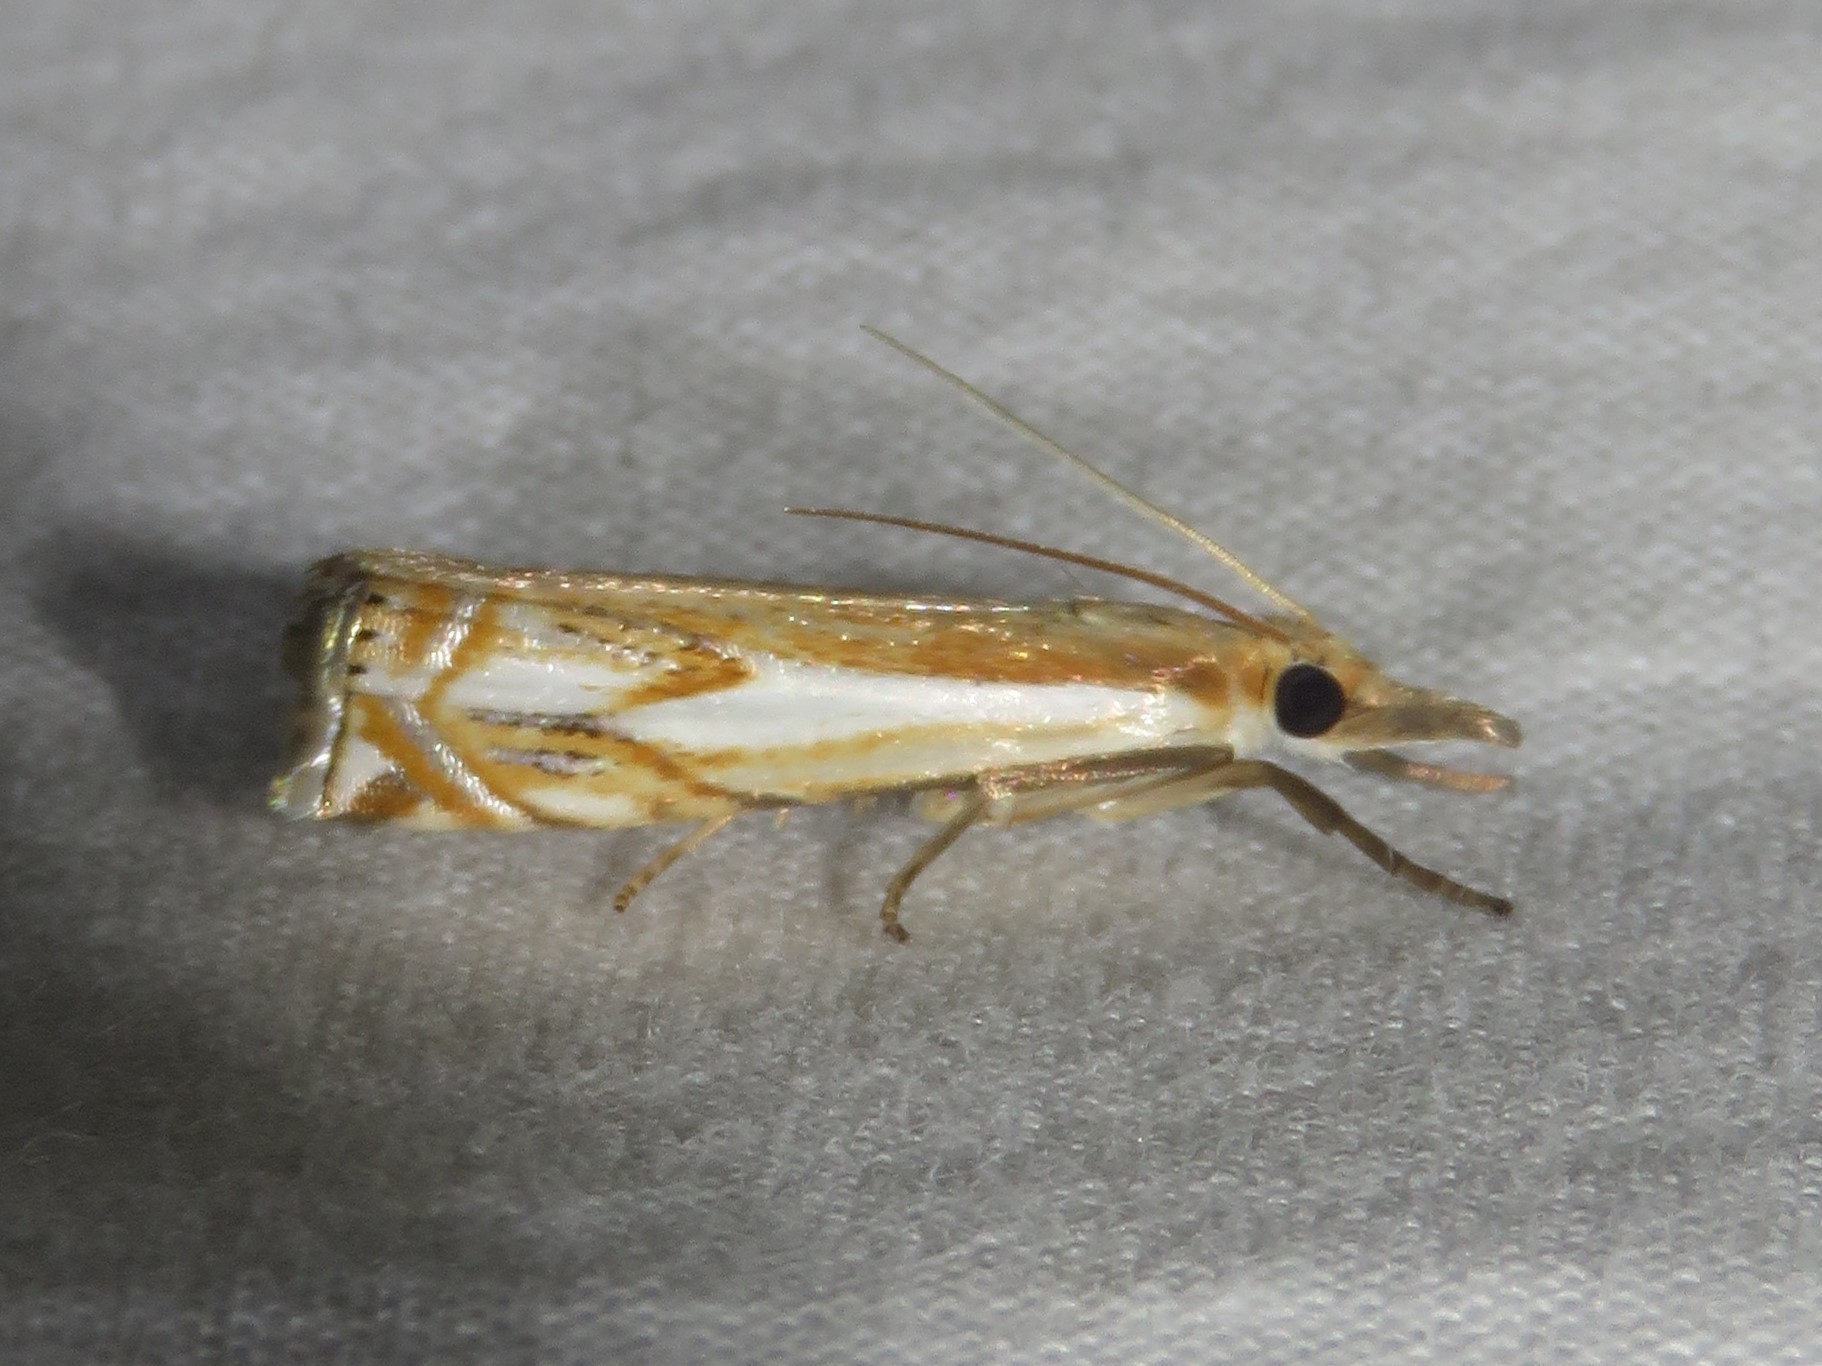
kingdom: Animalia
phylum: Arthropoda
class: Insecta
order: Lepidoptera
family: Crambidae
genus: Crambus
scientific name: Crambus agitatellus
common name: Double-banded grass-veneer
